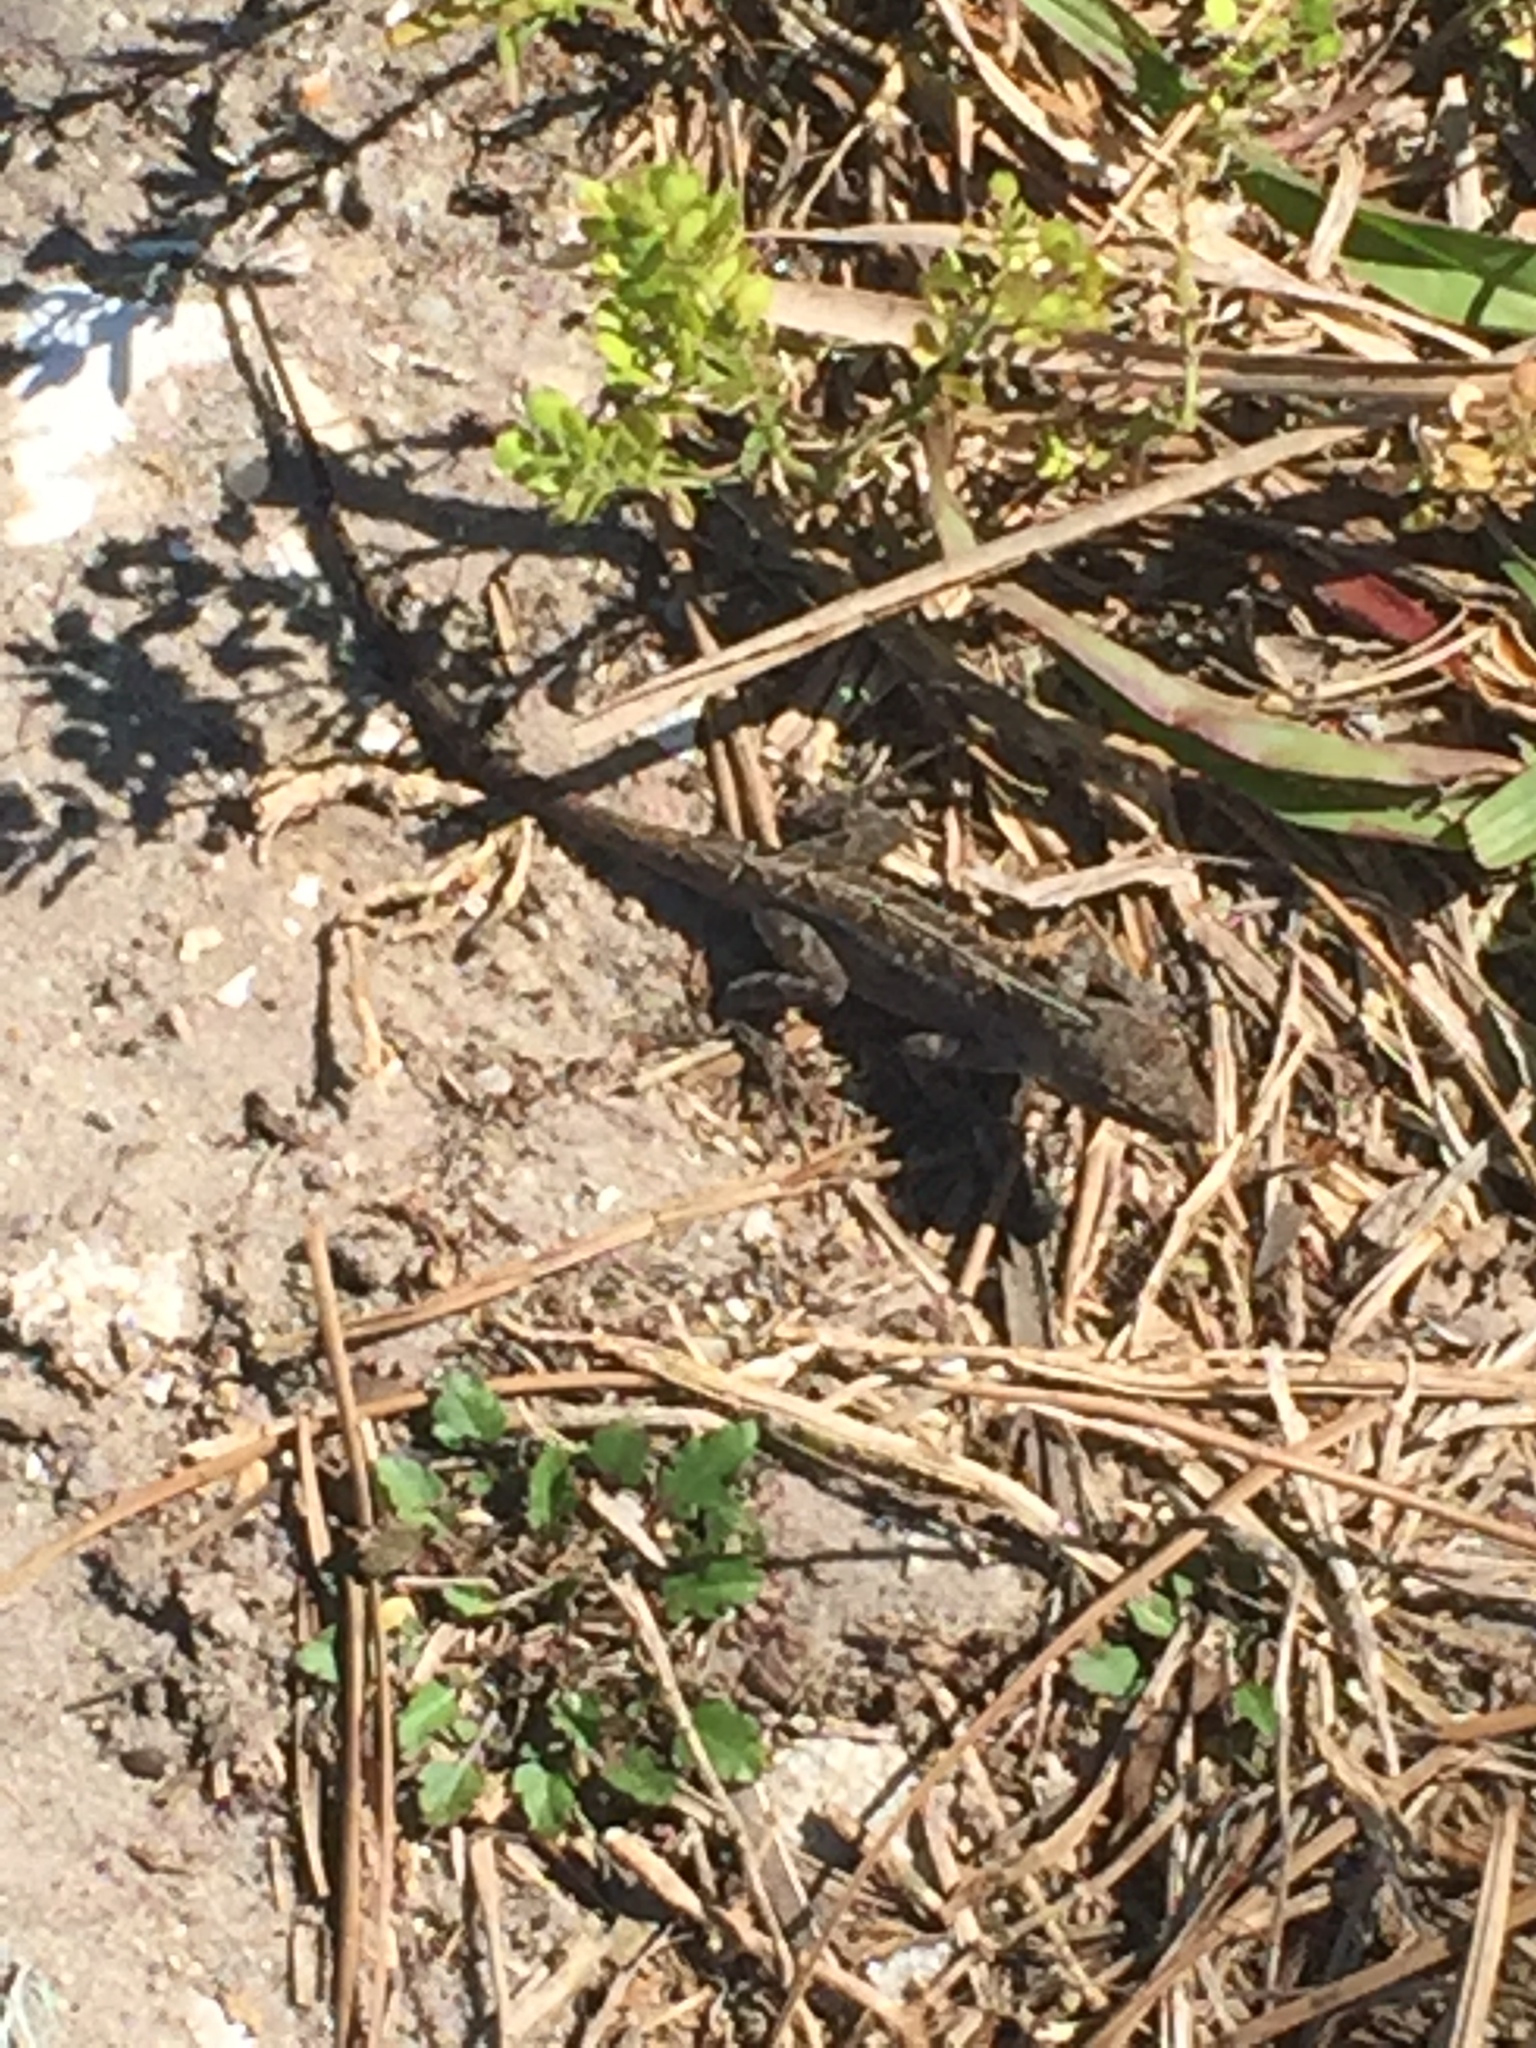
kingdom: Animalia
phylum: Chordata
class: Squamata
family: Dactyloidae
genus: Anolis
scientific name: Anolis sagrei
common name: Brown anole
